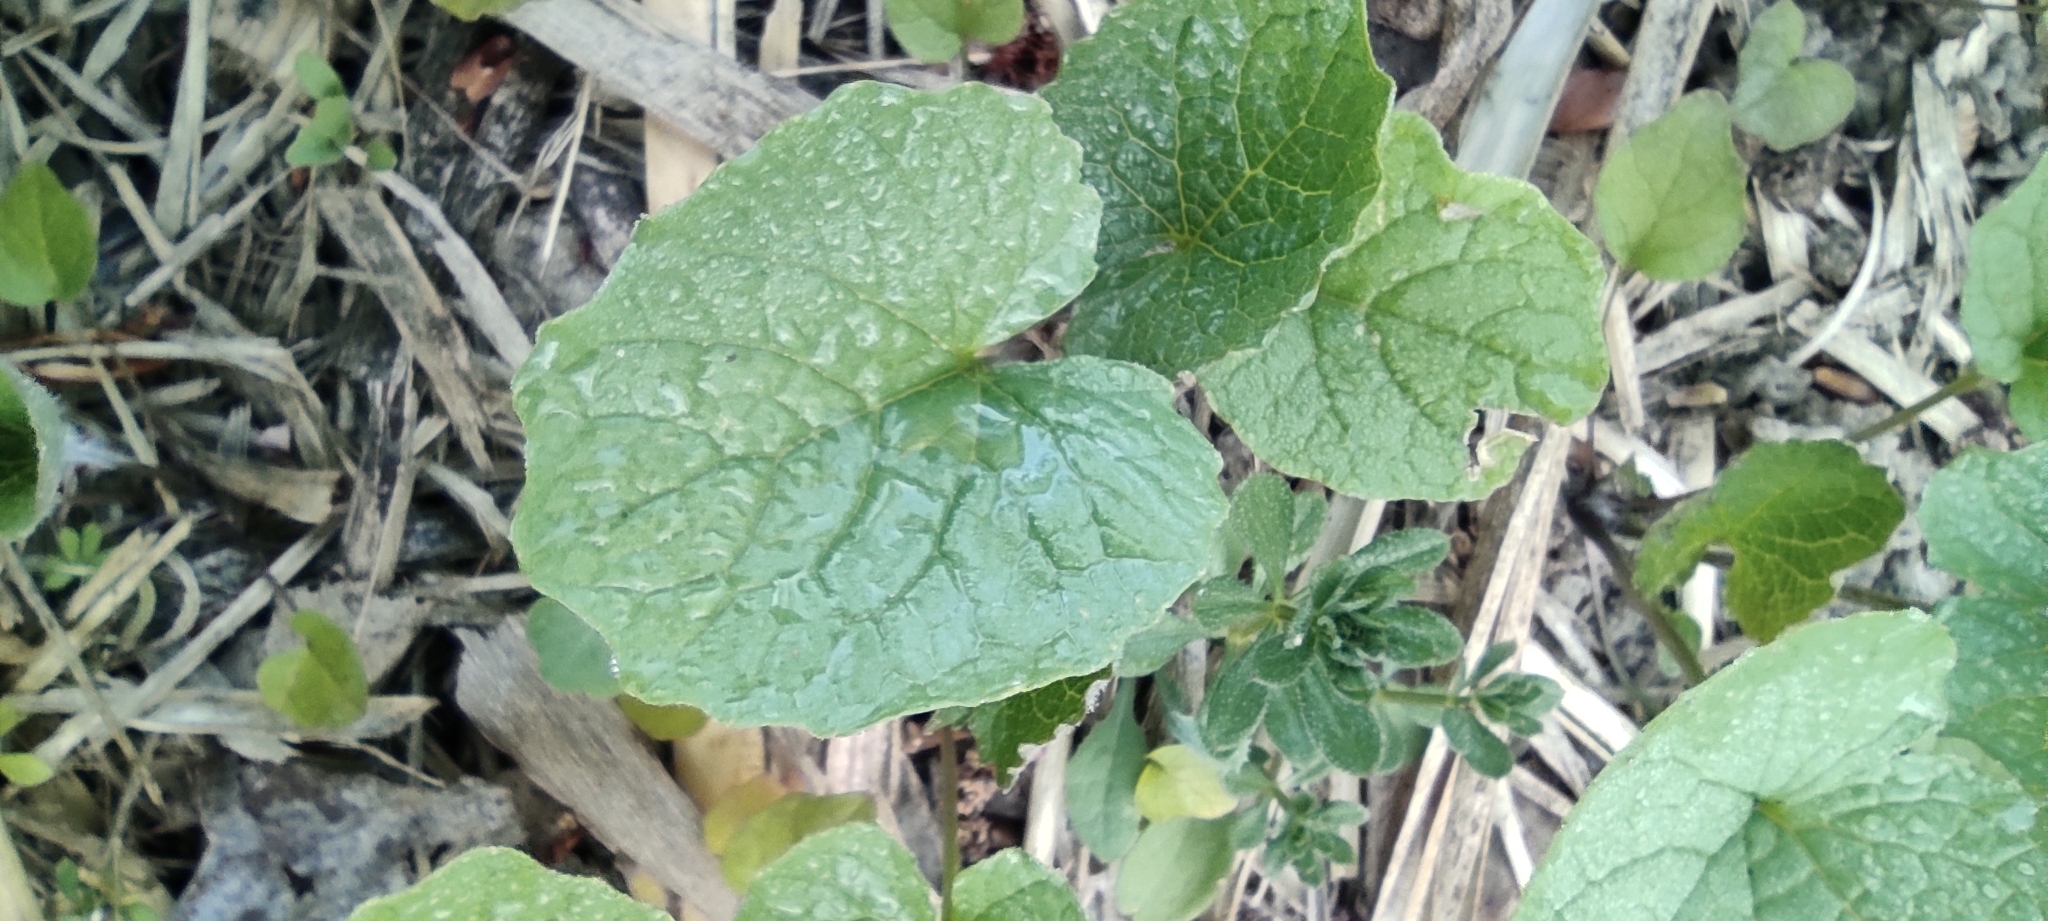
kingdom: Plantae
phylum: Tracheophyta
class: Magnoliopsida
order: Brassicales
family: Brassicaceae
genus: Alliaria
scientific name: Alliaria petiolata
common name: Garlic mustard
